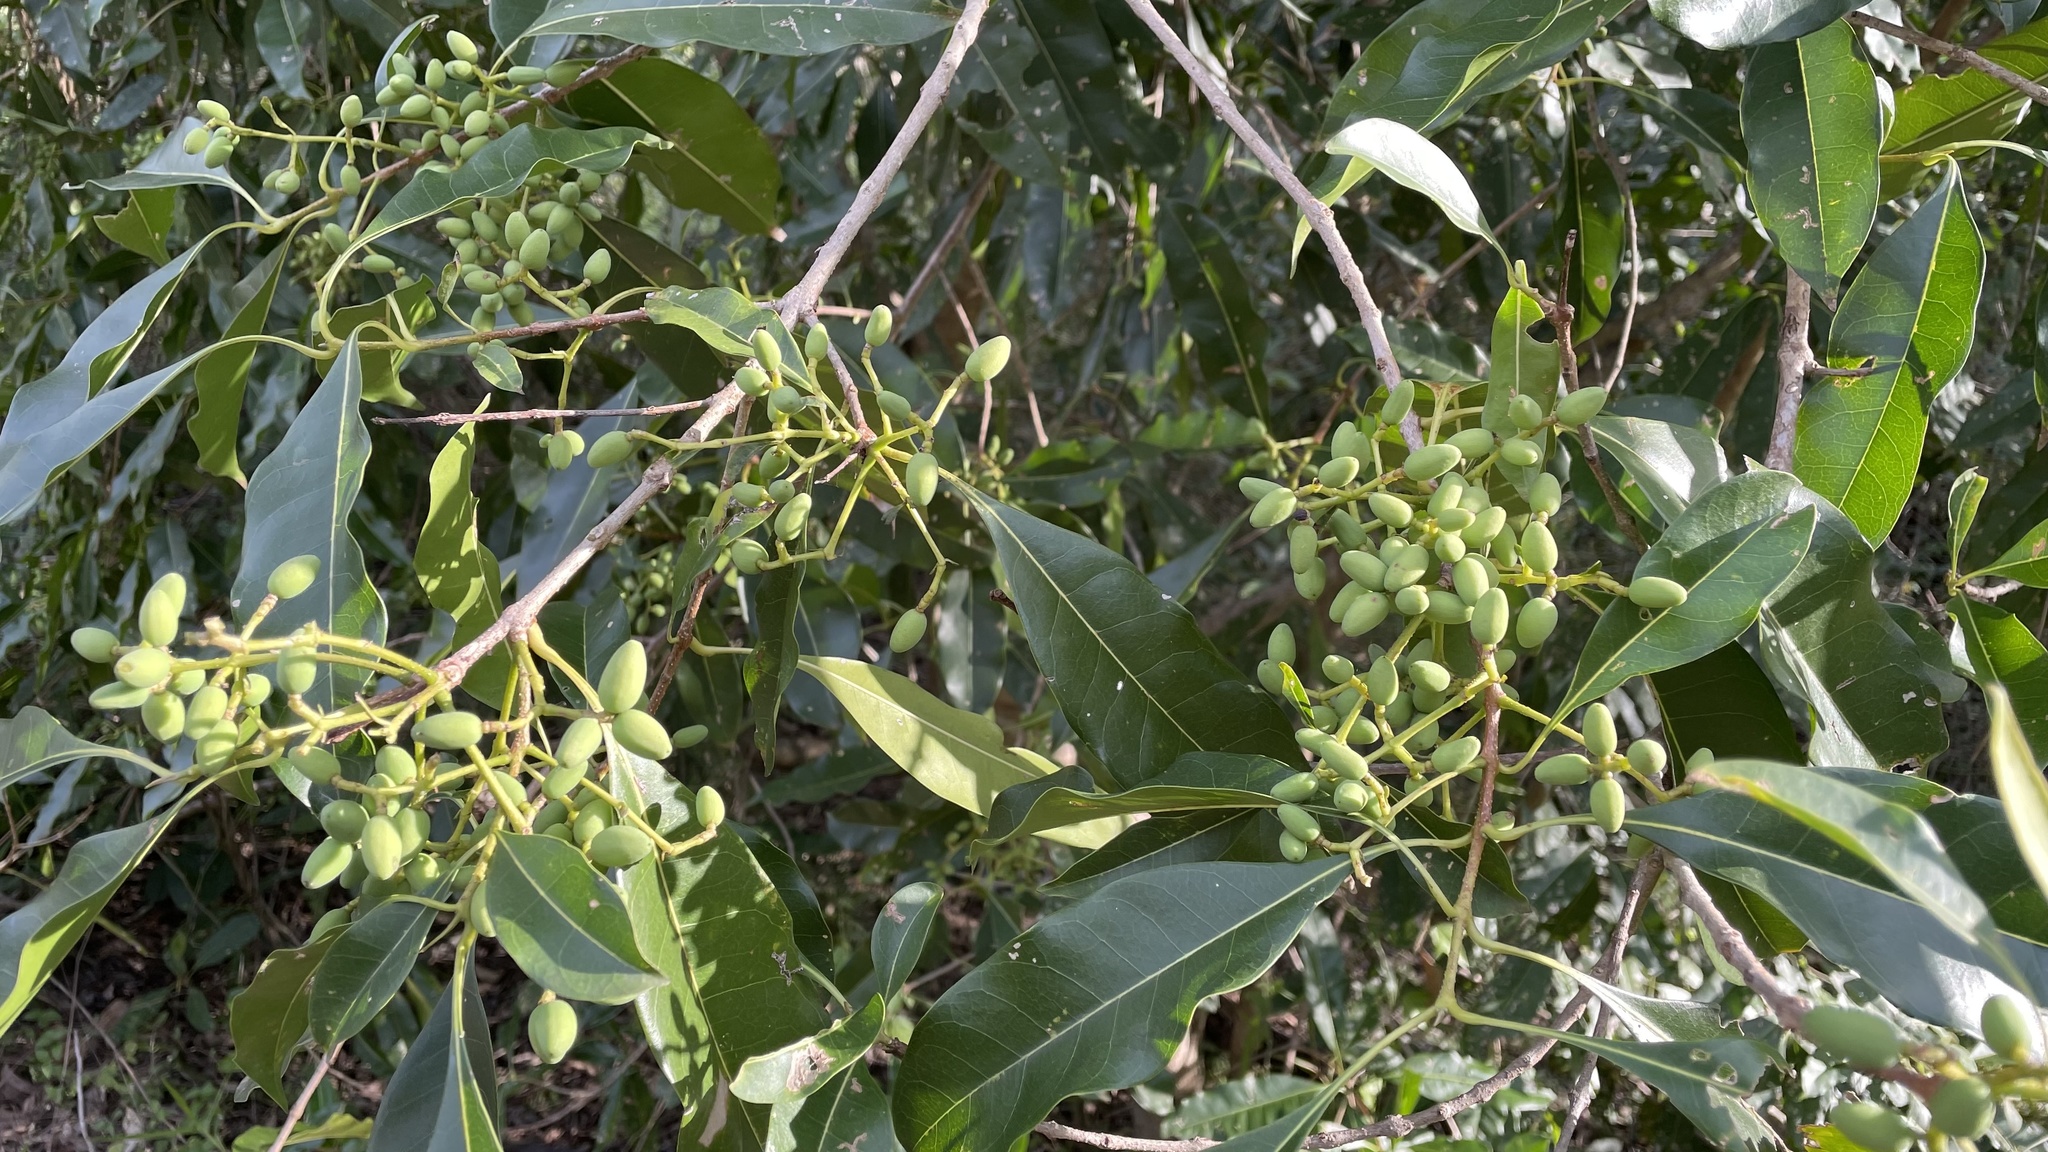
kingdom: Plantae
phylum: Tracheophyta
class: Magnoliopsida
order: Lamiales
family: Oleaceae
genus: Chionanthus
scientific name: Chionanthus ramiflorus
